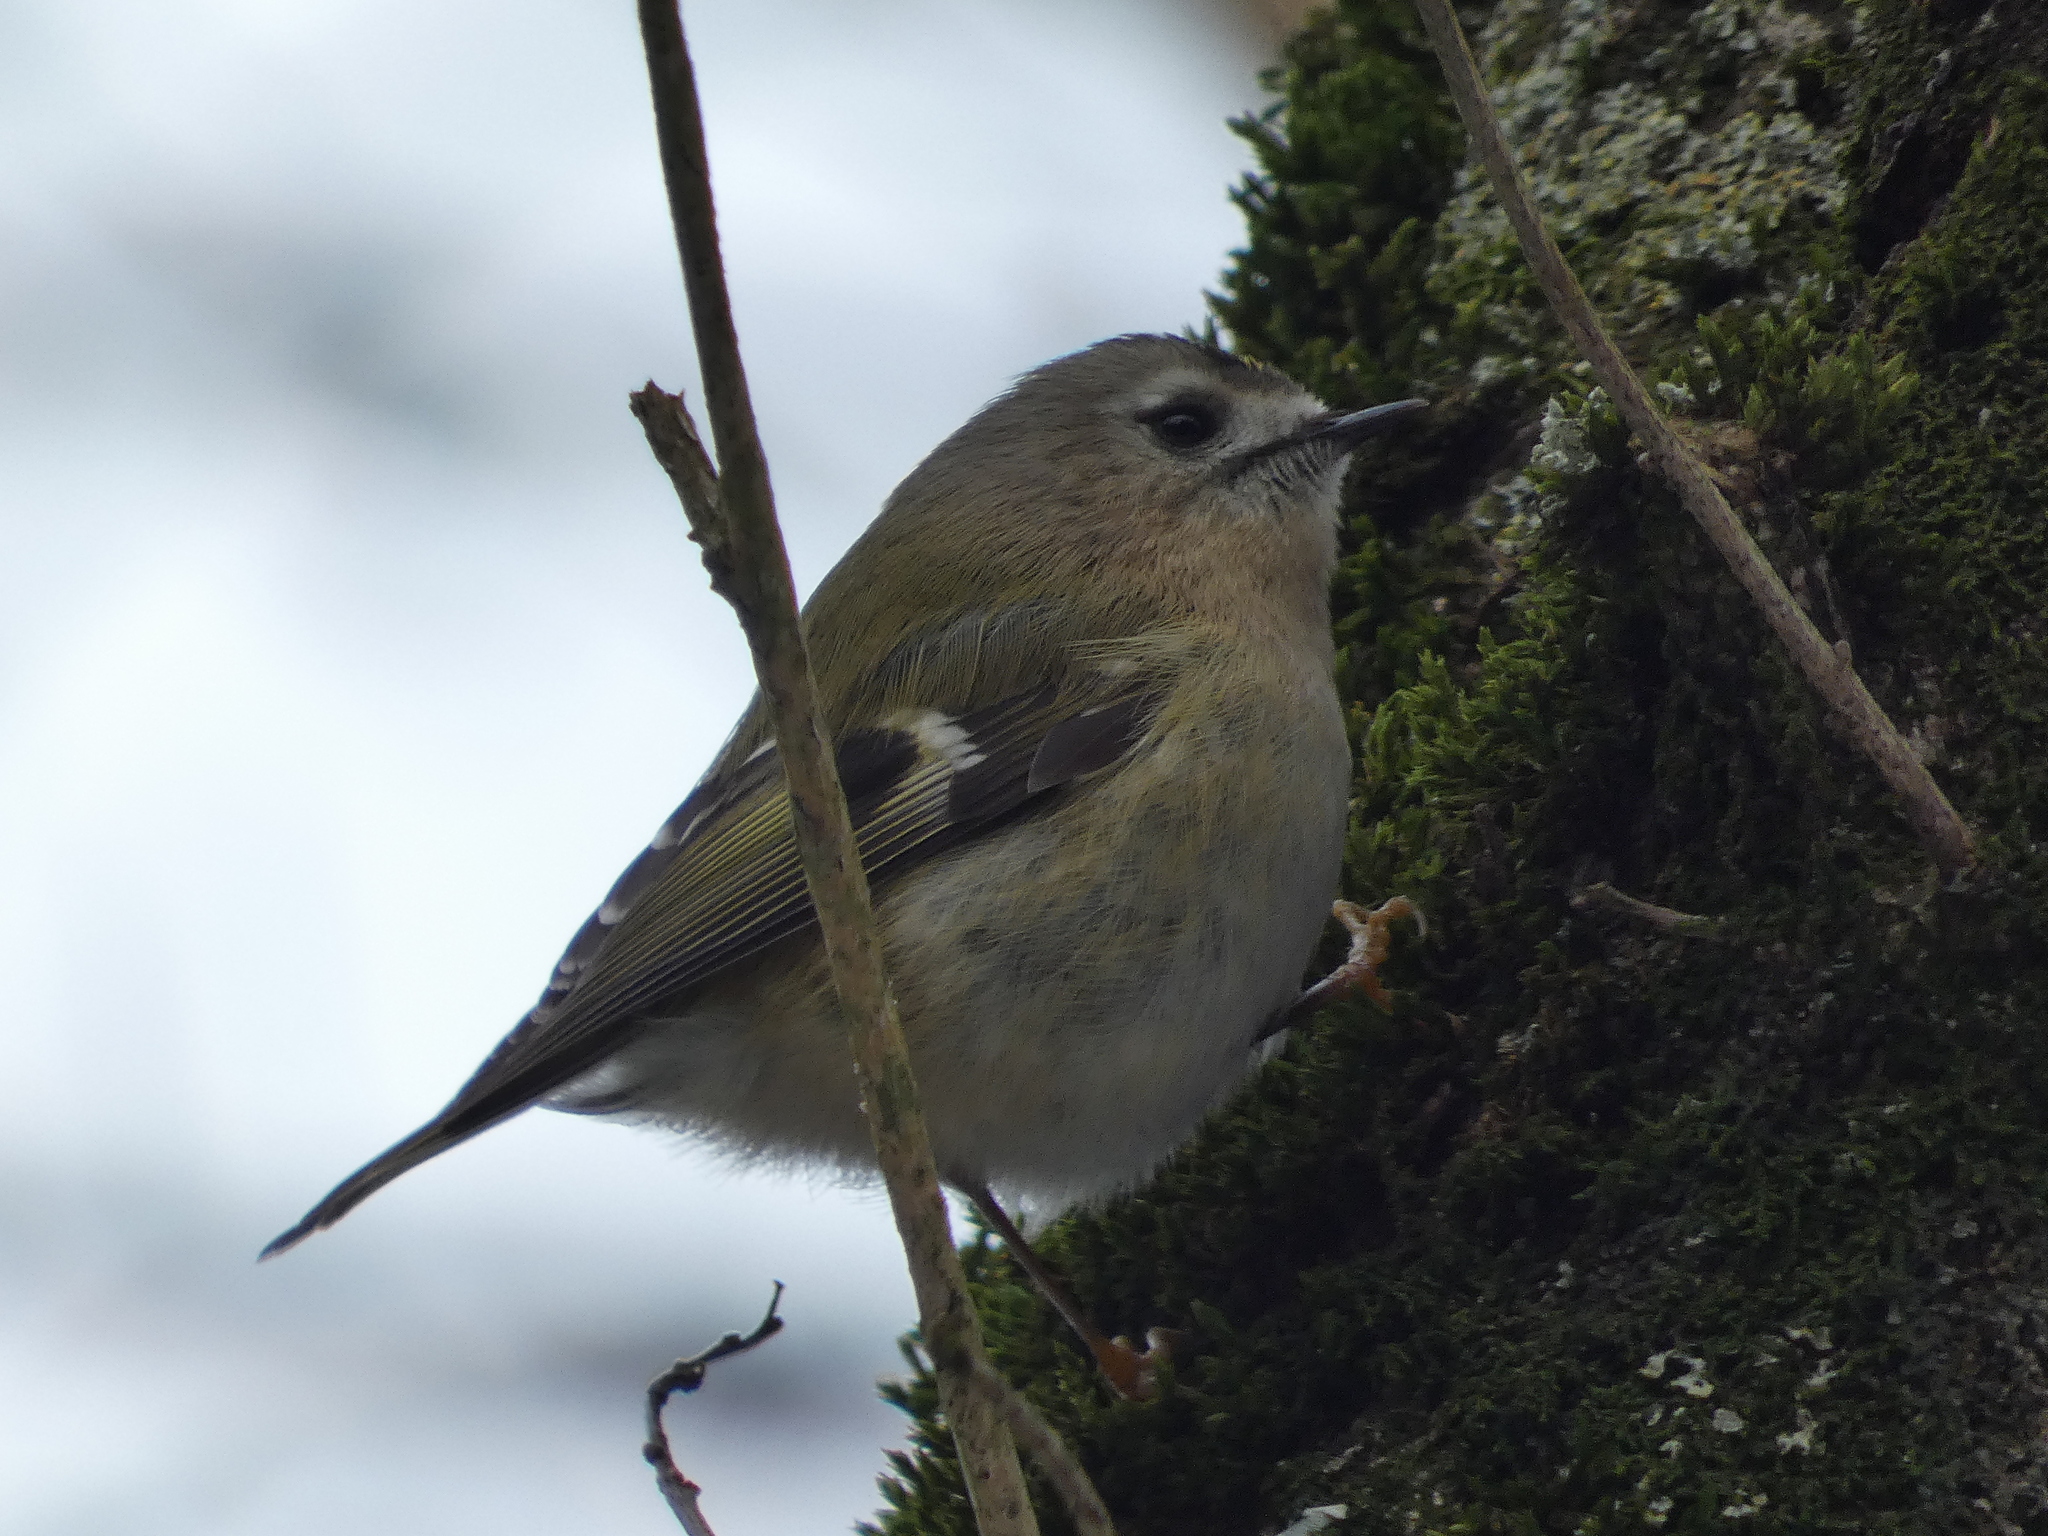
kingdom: Animalia
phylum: Chordata
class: Aves
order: Passeriformes
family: Regulidae
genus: Regulus
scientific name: Regulus regulus
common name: Goldcrest
